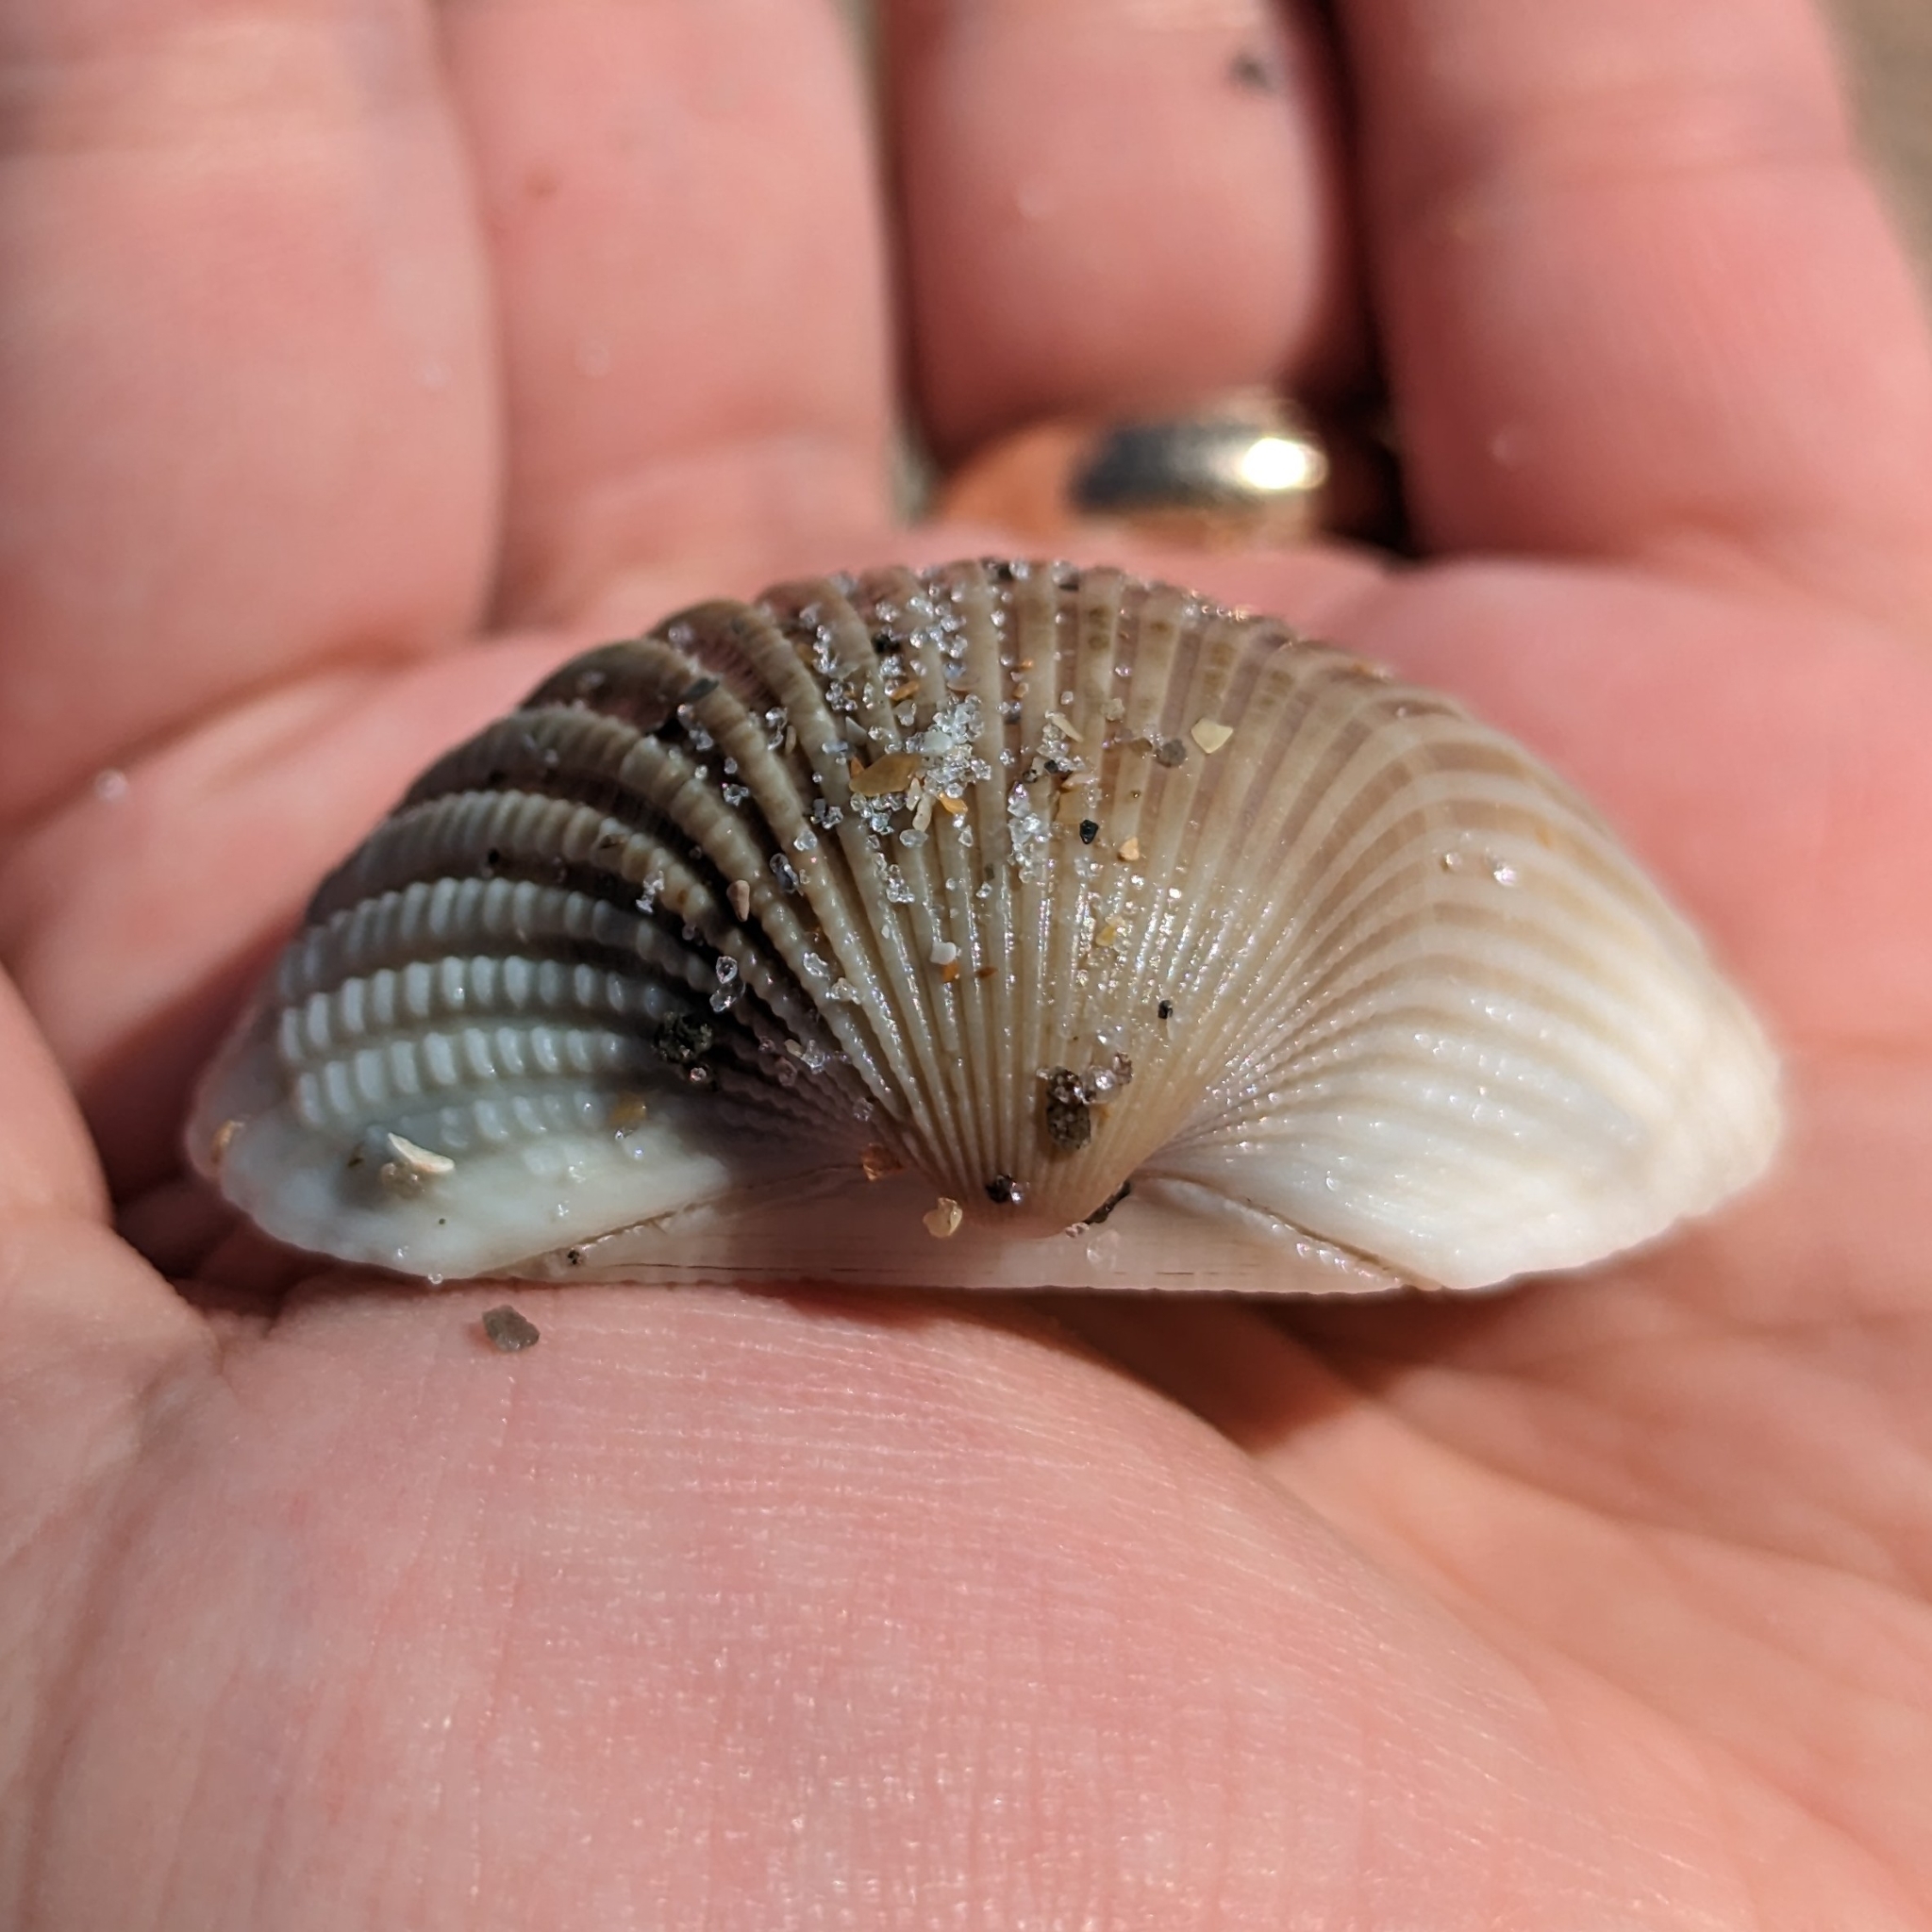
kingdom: Animalia
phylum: Mollusca
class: Bivalvia
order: Arcida
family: Arcidae
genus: Anadara
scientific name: Anadara brasiliana
